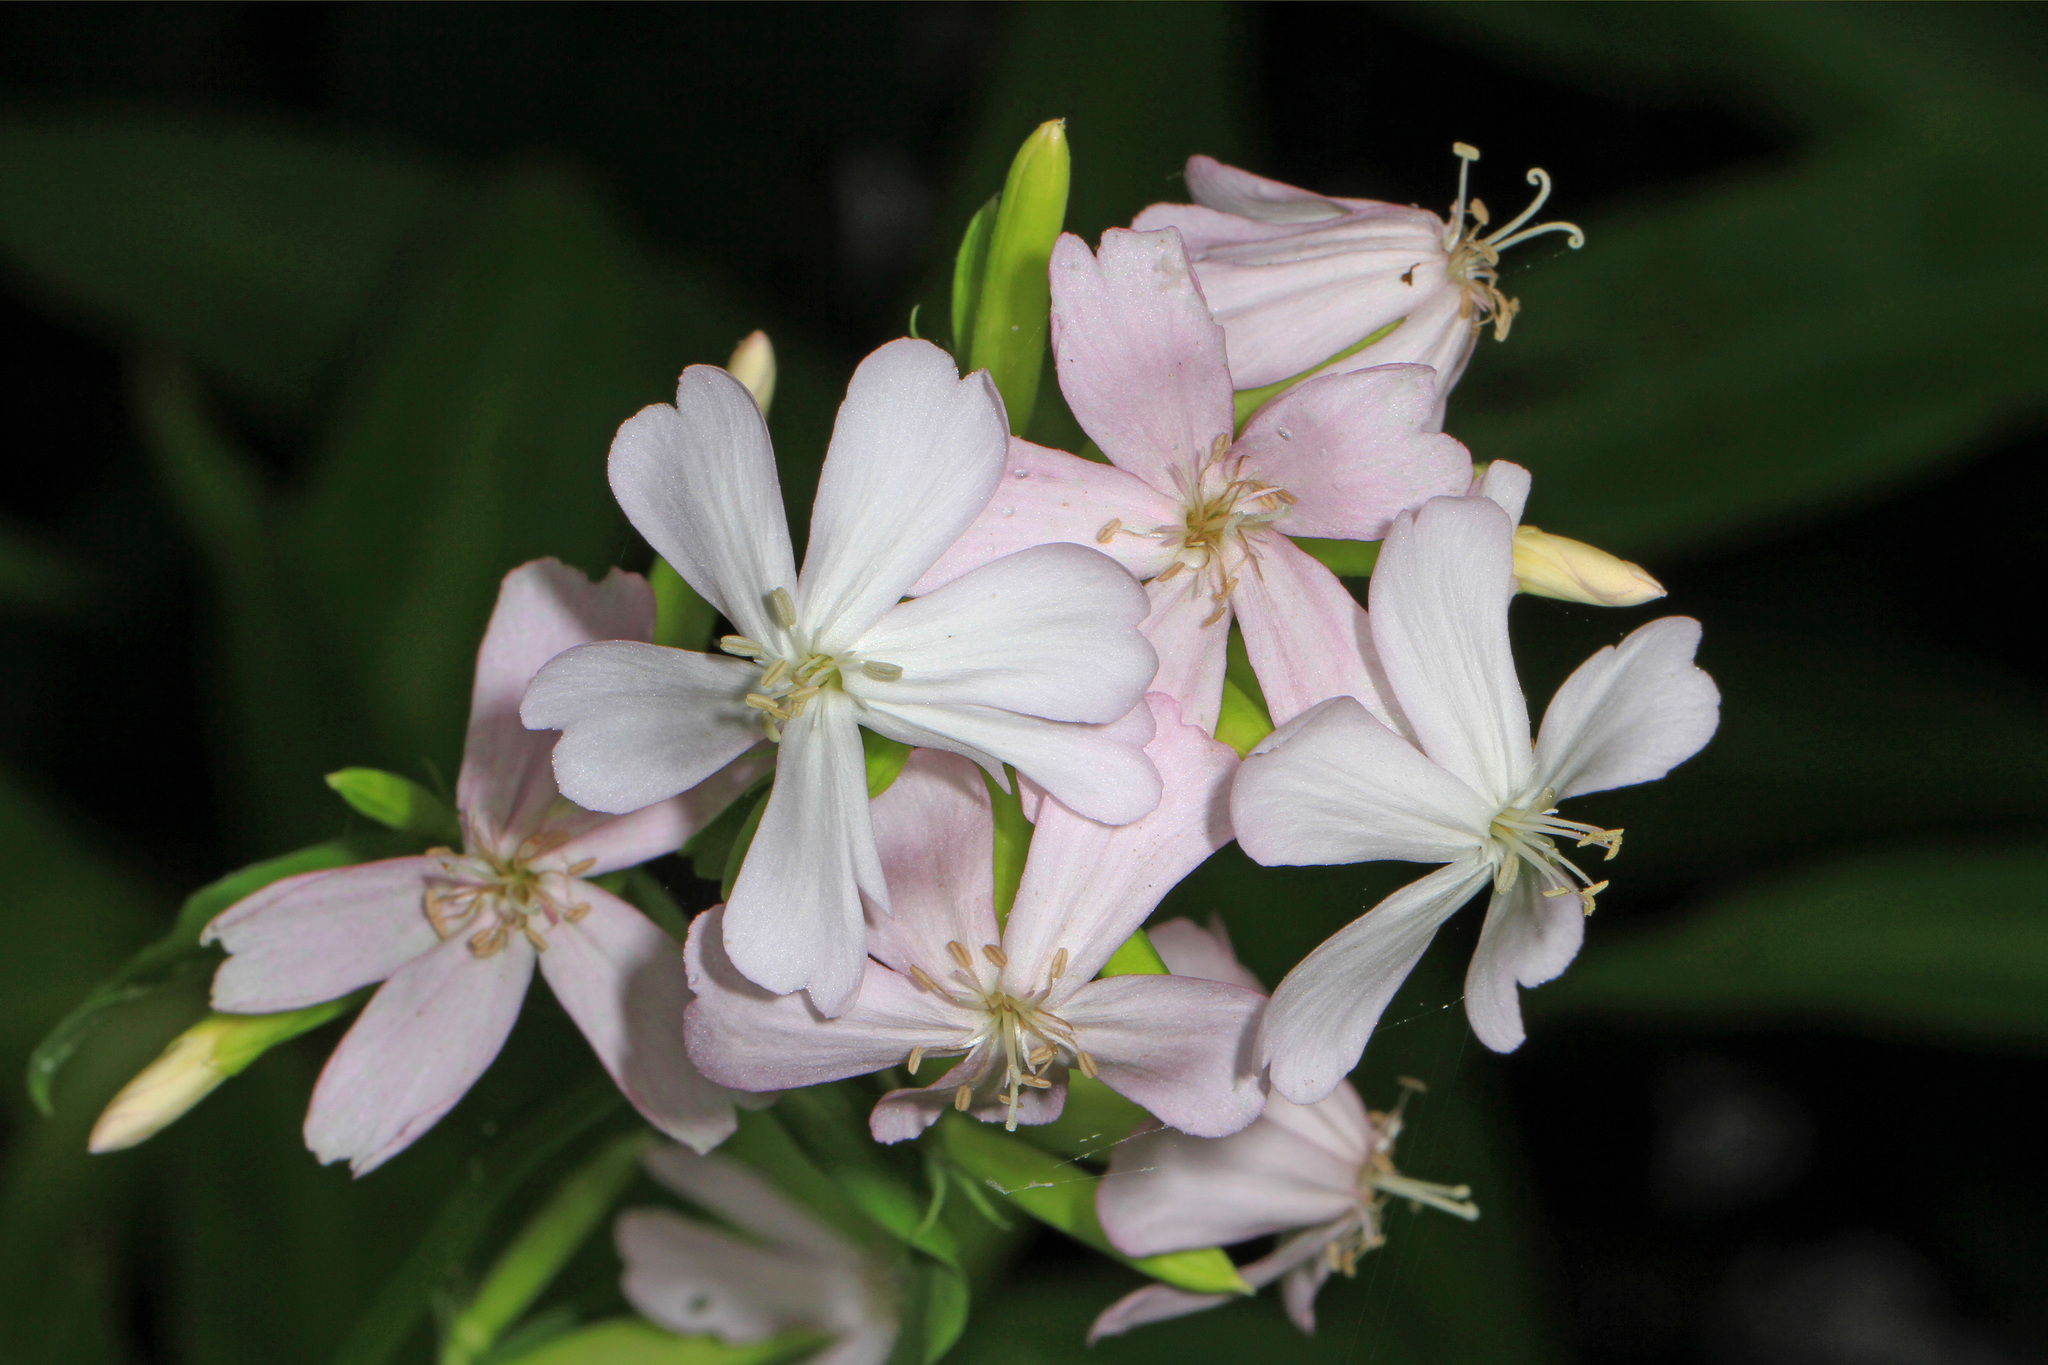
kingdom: Plantae
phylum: Tracheophyta
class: Magnoliopsida
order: Caryophyllales
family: Caryophyllaceae
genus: Saponaria
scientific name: Saponaria officinalis
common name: Soapwort
